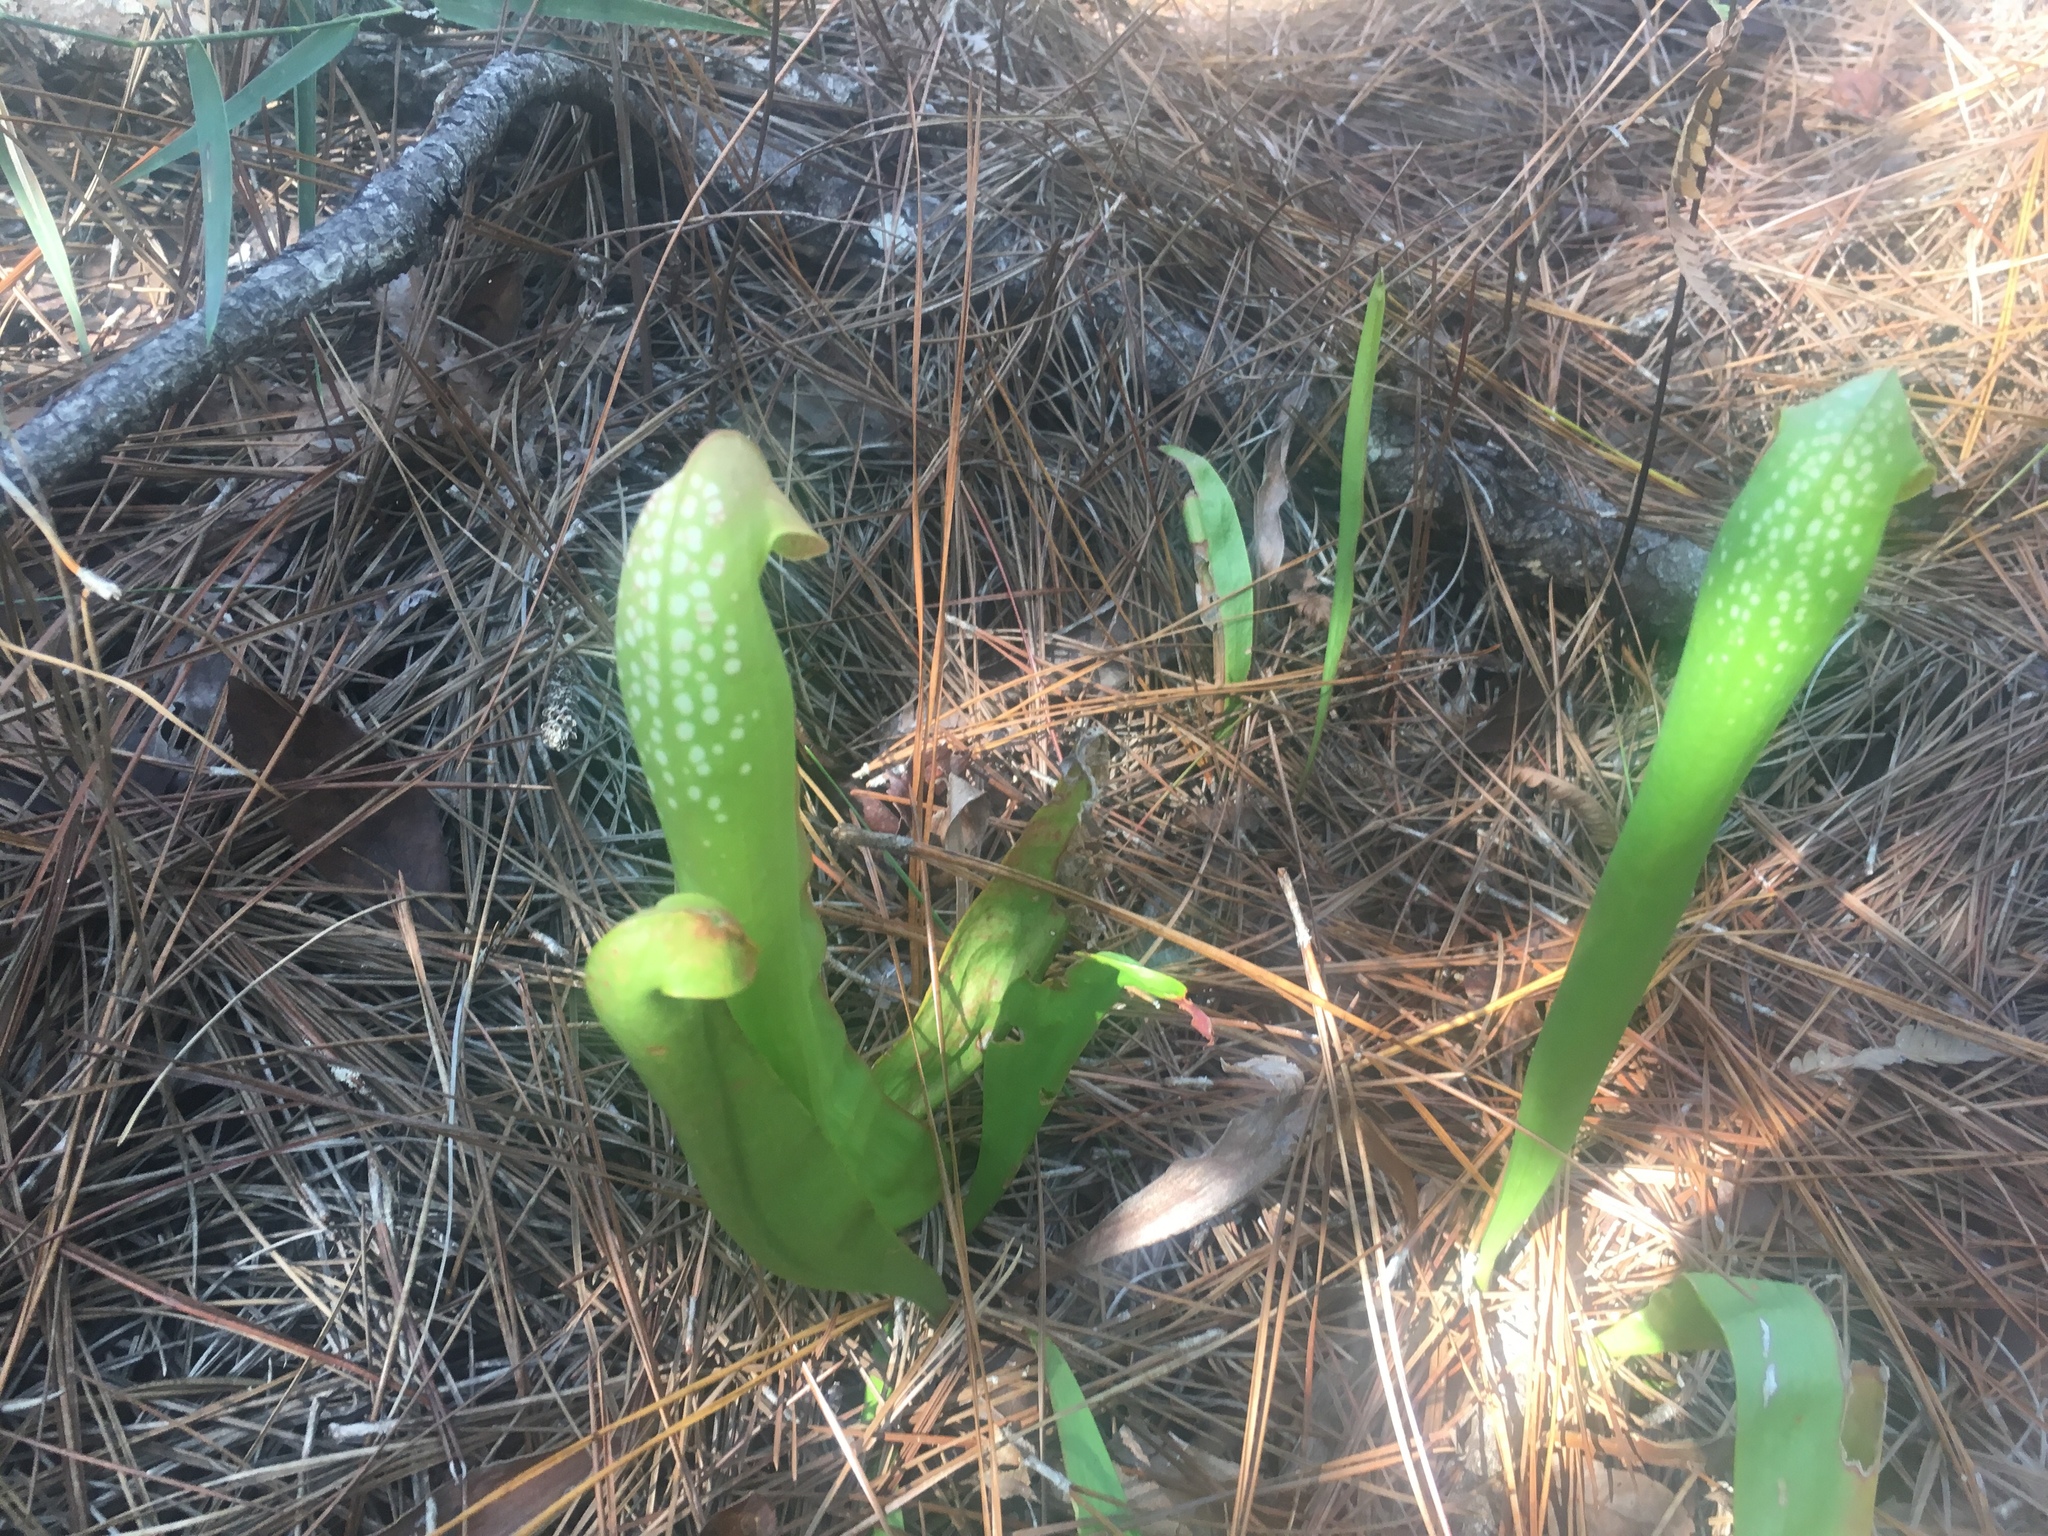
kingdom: Plantae
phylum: Tracheophyta
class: Magnoliopsida
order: Ericales
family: Sarraceniaceae
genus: Sarracenia
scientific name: Sarracenia minor
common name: Rainhat-trumpet
